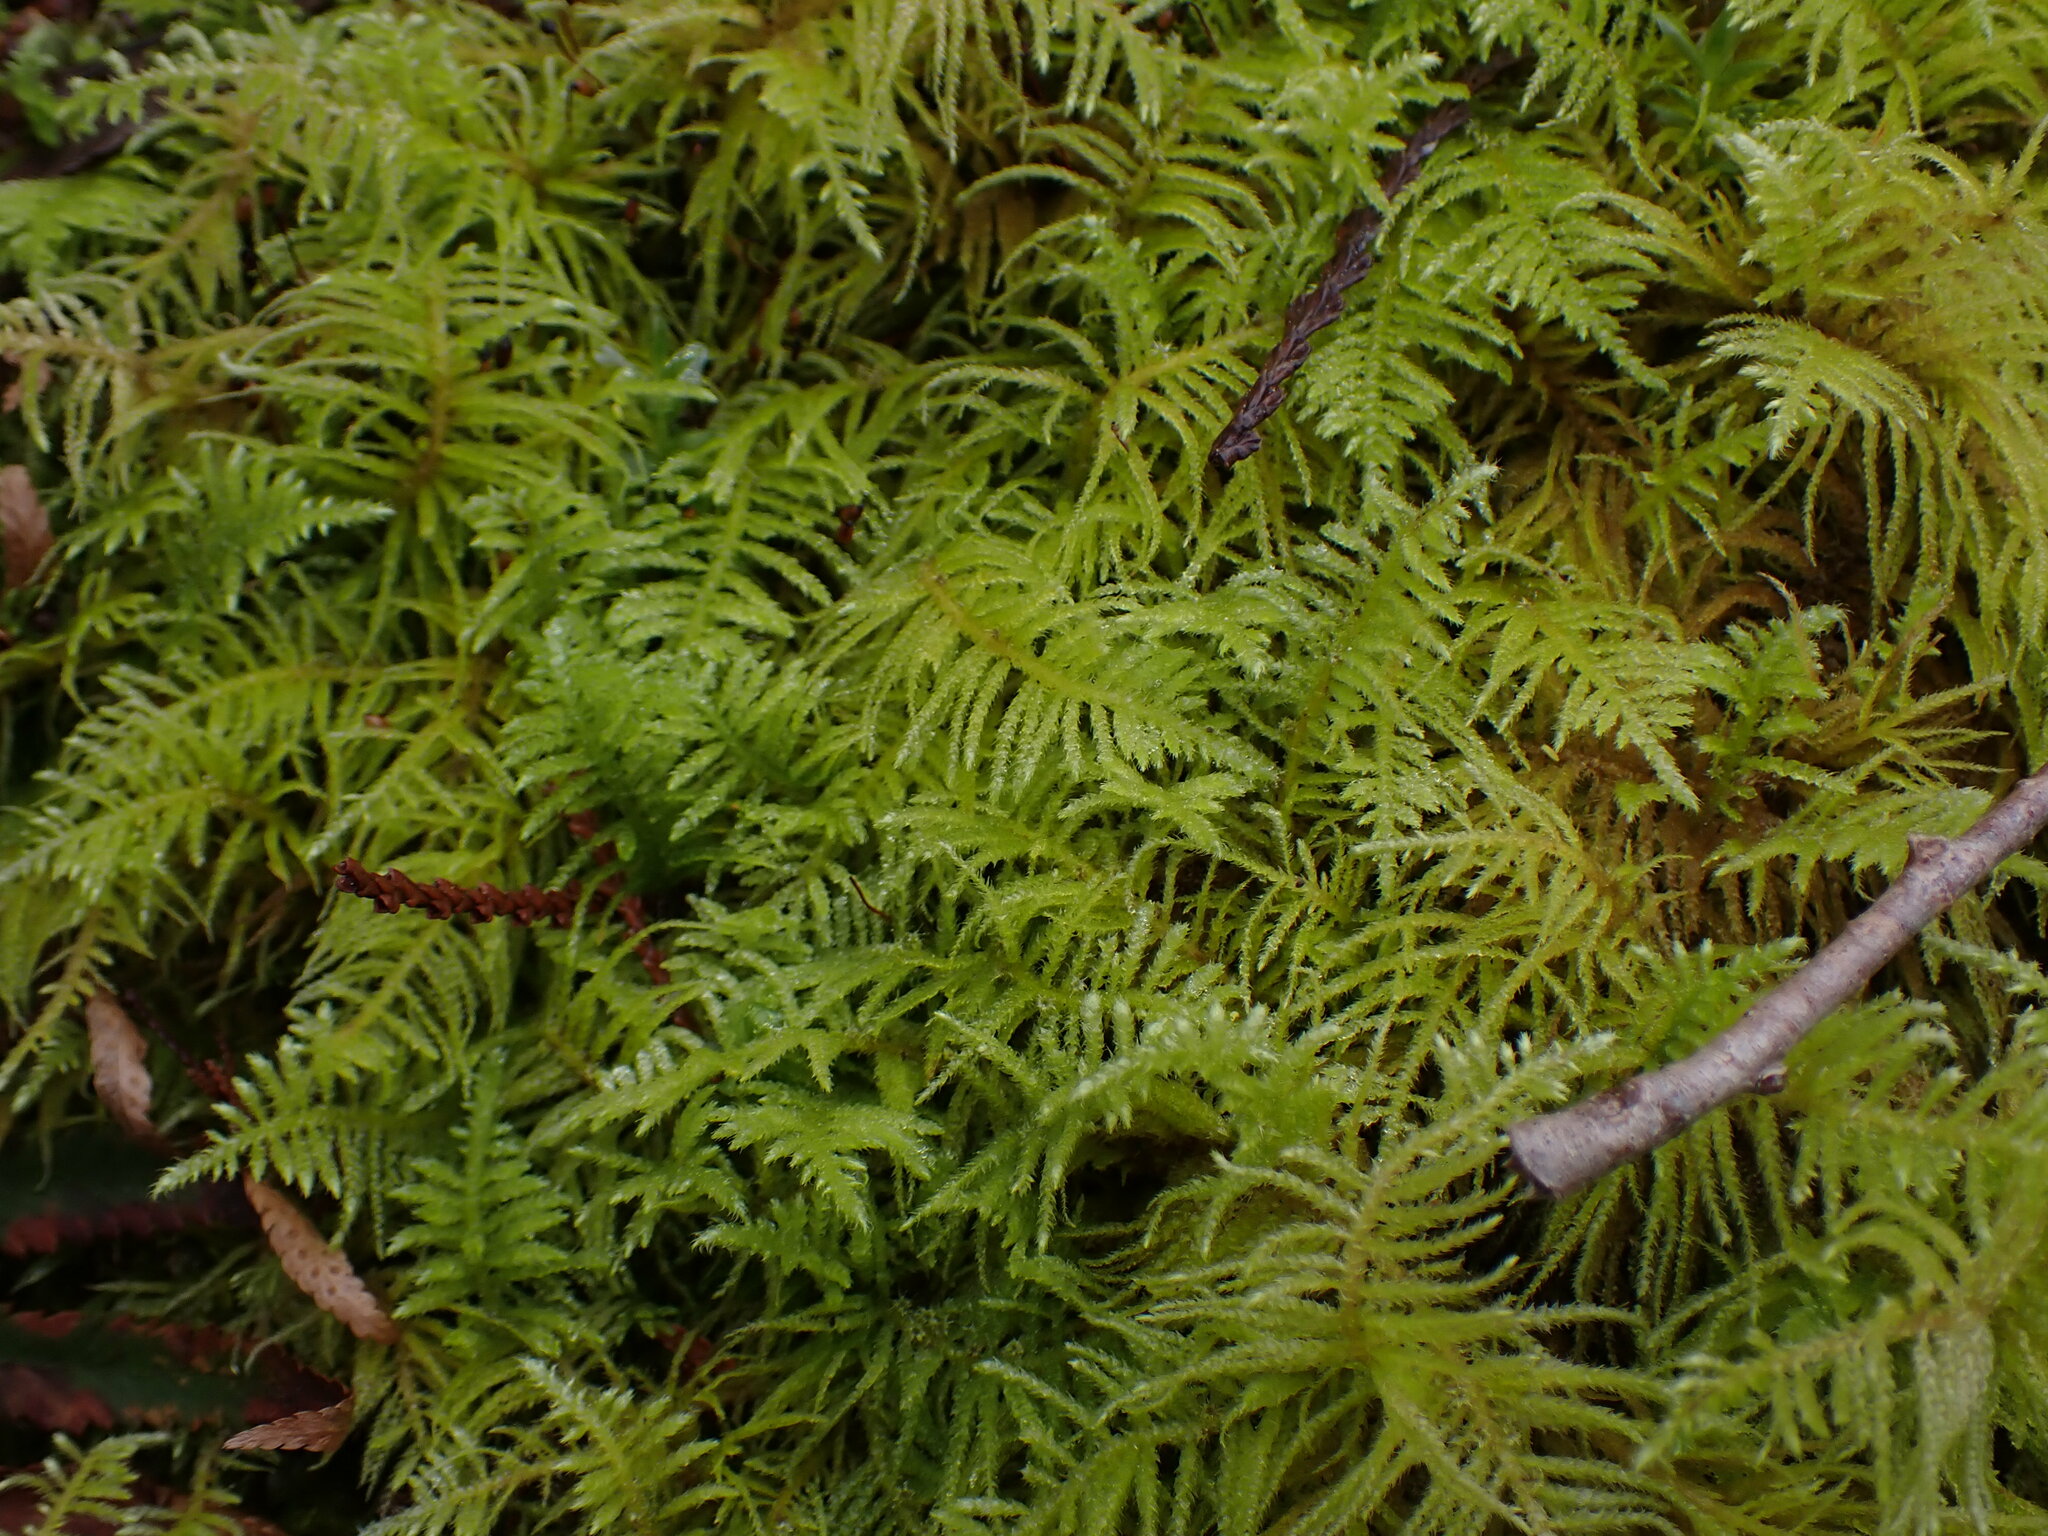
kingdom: Plantae
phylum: Bryophyta
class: Bryopsida
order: Hypnales
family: Brachytheciaceae
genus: Kindbergia
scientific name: Kindbergia oregana
